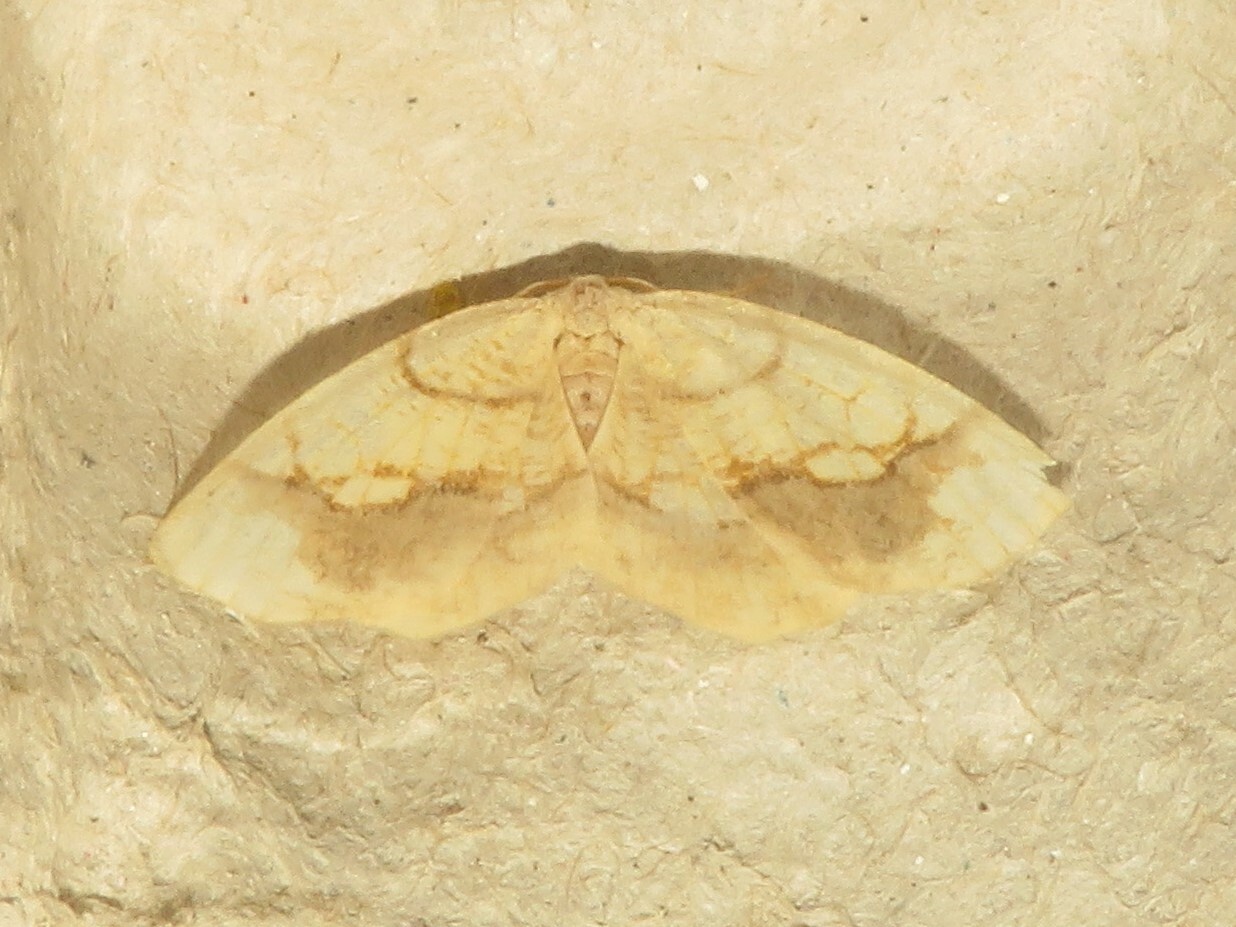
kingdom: Animalia
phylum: Arthropoda
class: Insecta
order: Lepidoptera
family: Geometridae
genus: Nematocampa
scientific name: Nematocampa resistaria
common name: Horned spanworm moth
